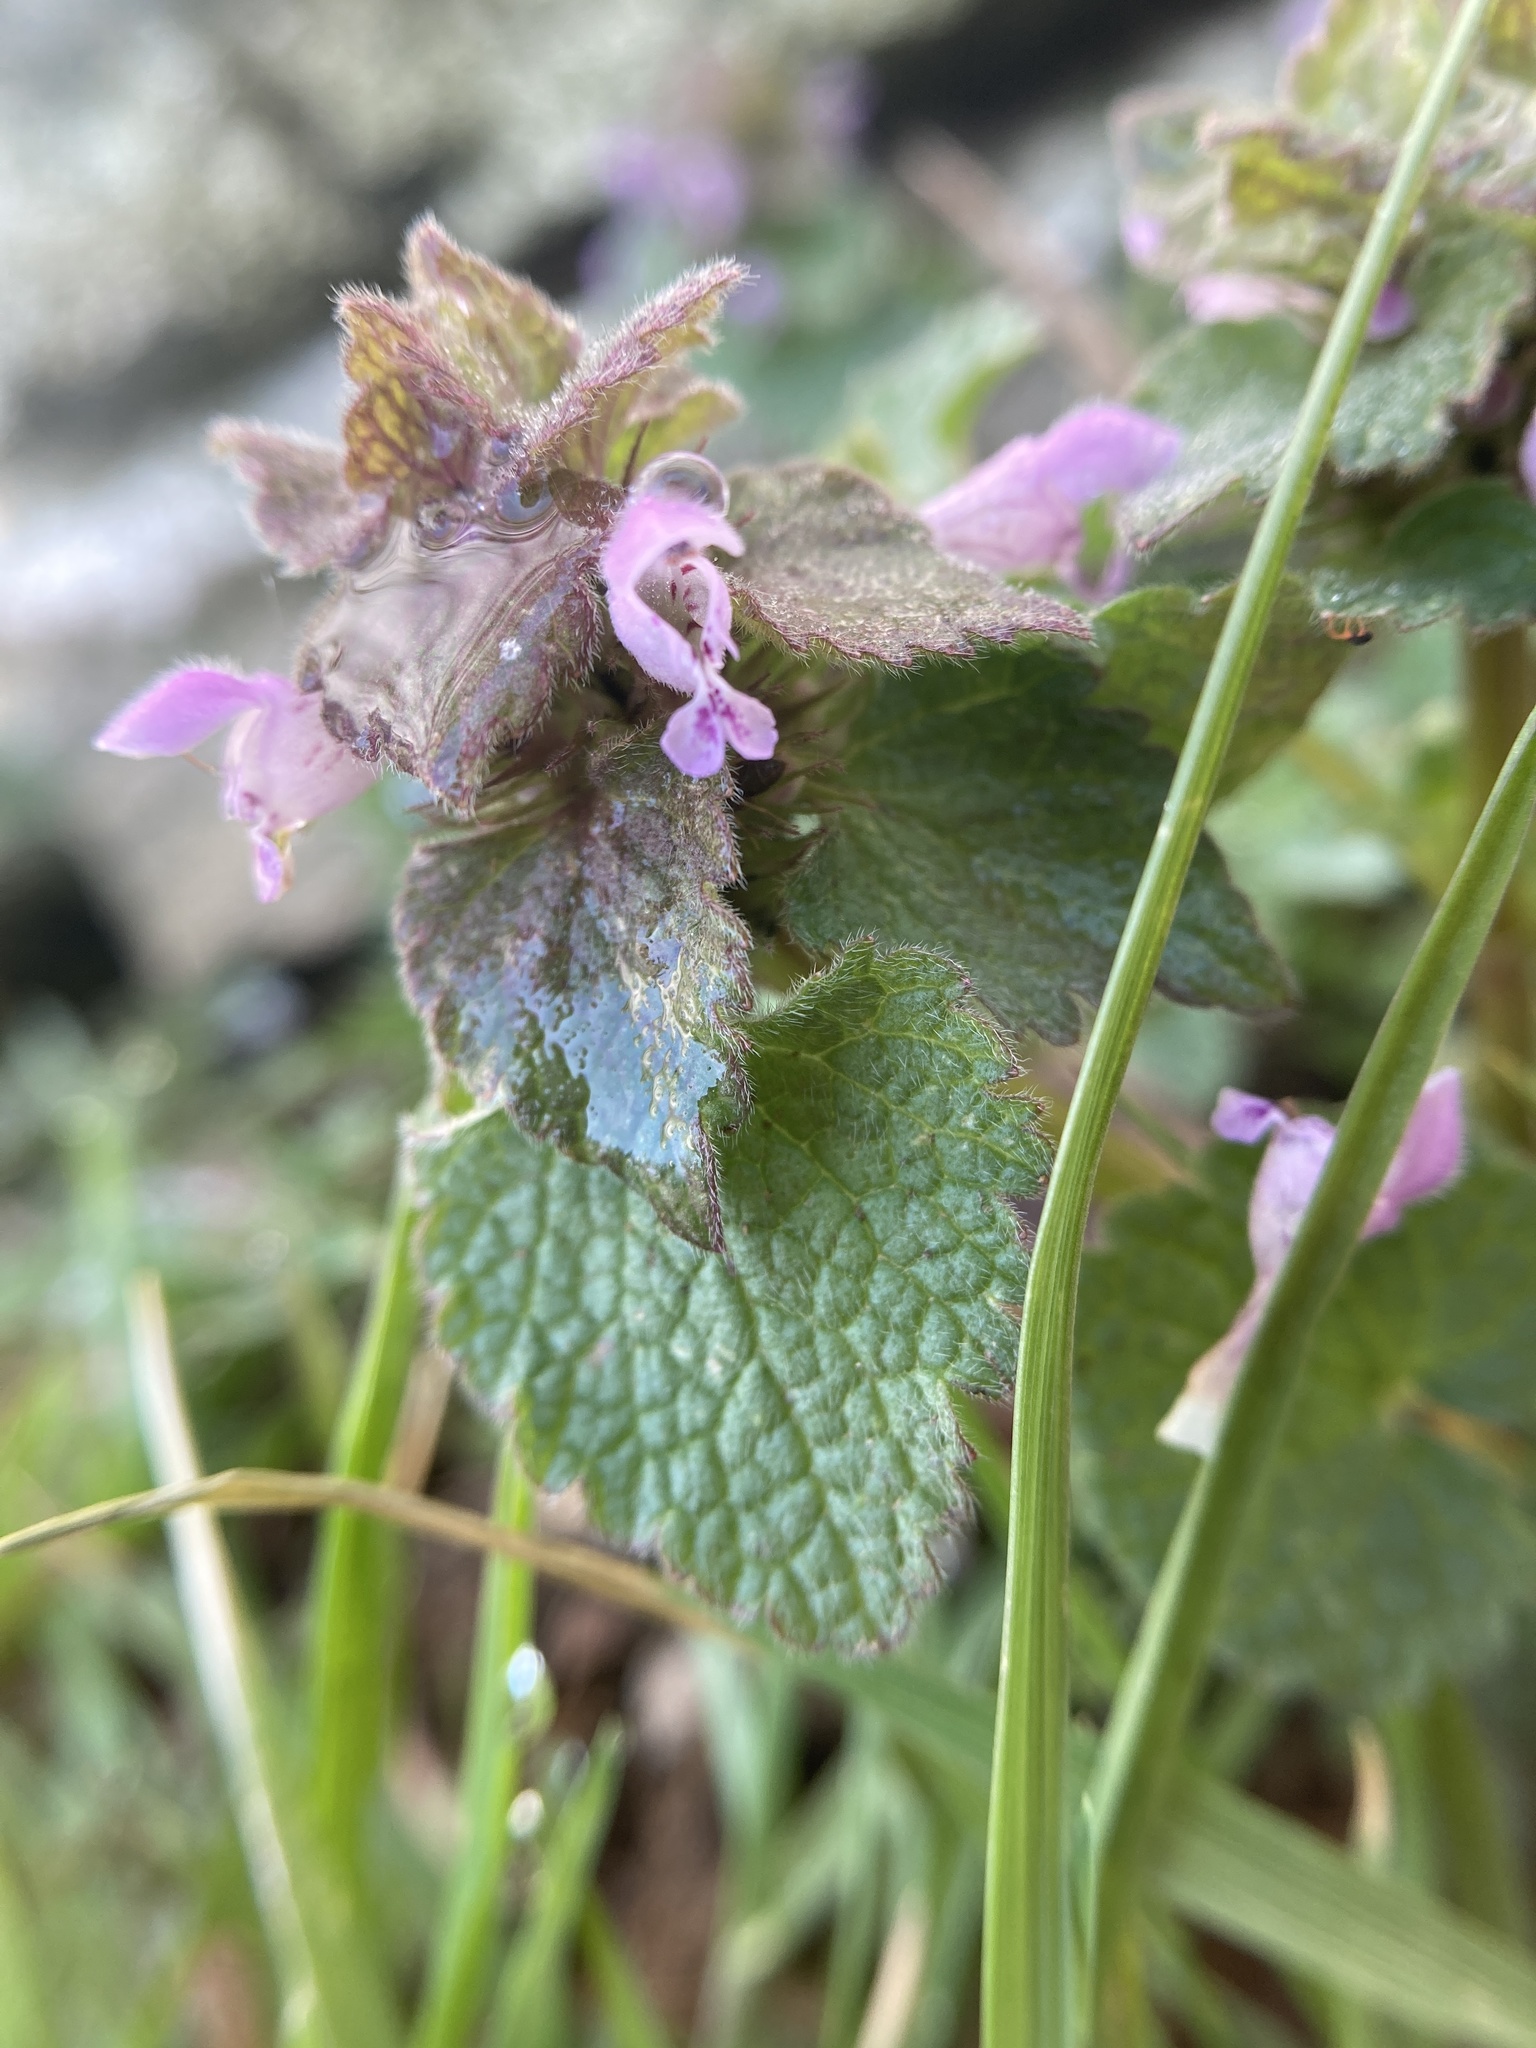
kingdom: Plantae
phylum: Tracheophyta
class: Magnoliopsida
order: Lamiales
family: Lamiaceae
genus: Lamium
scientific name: Lamium purpureum
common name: Red dead-nettle
